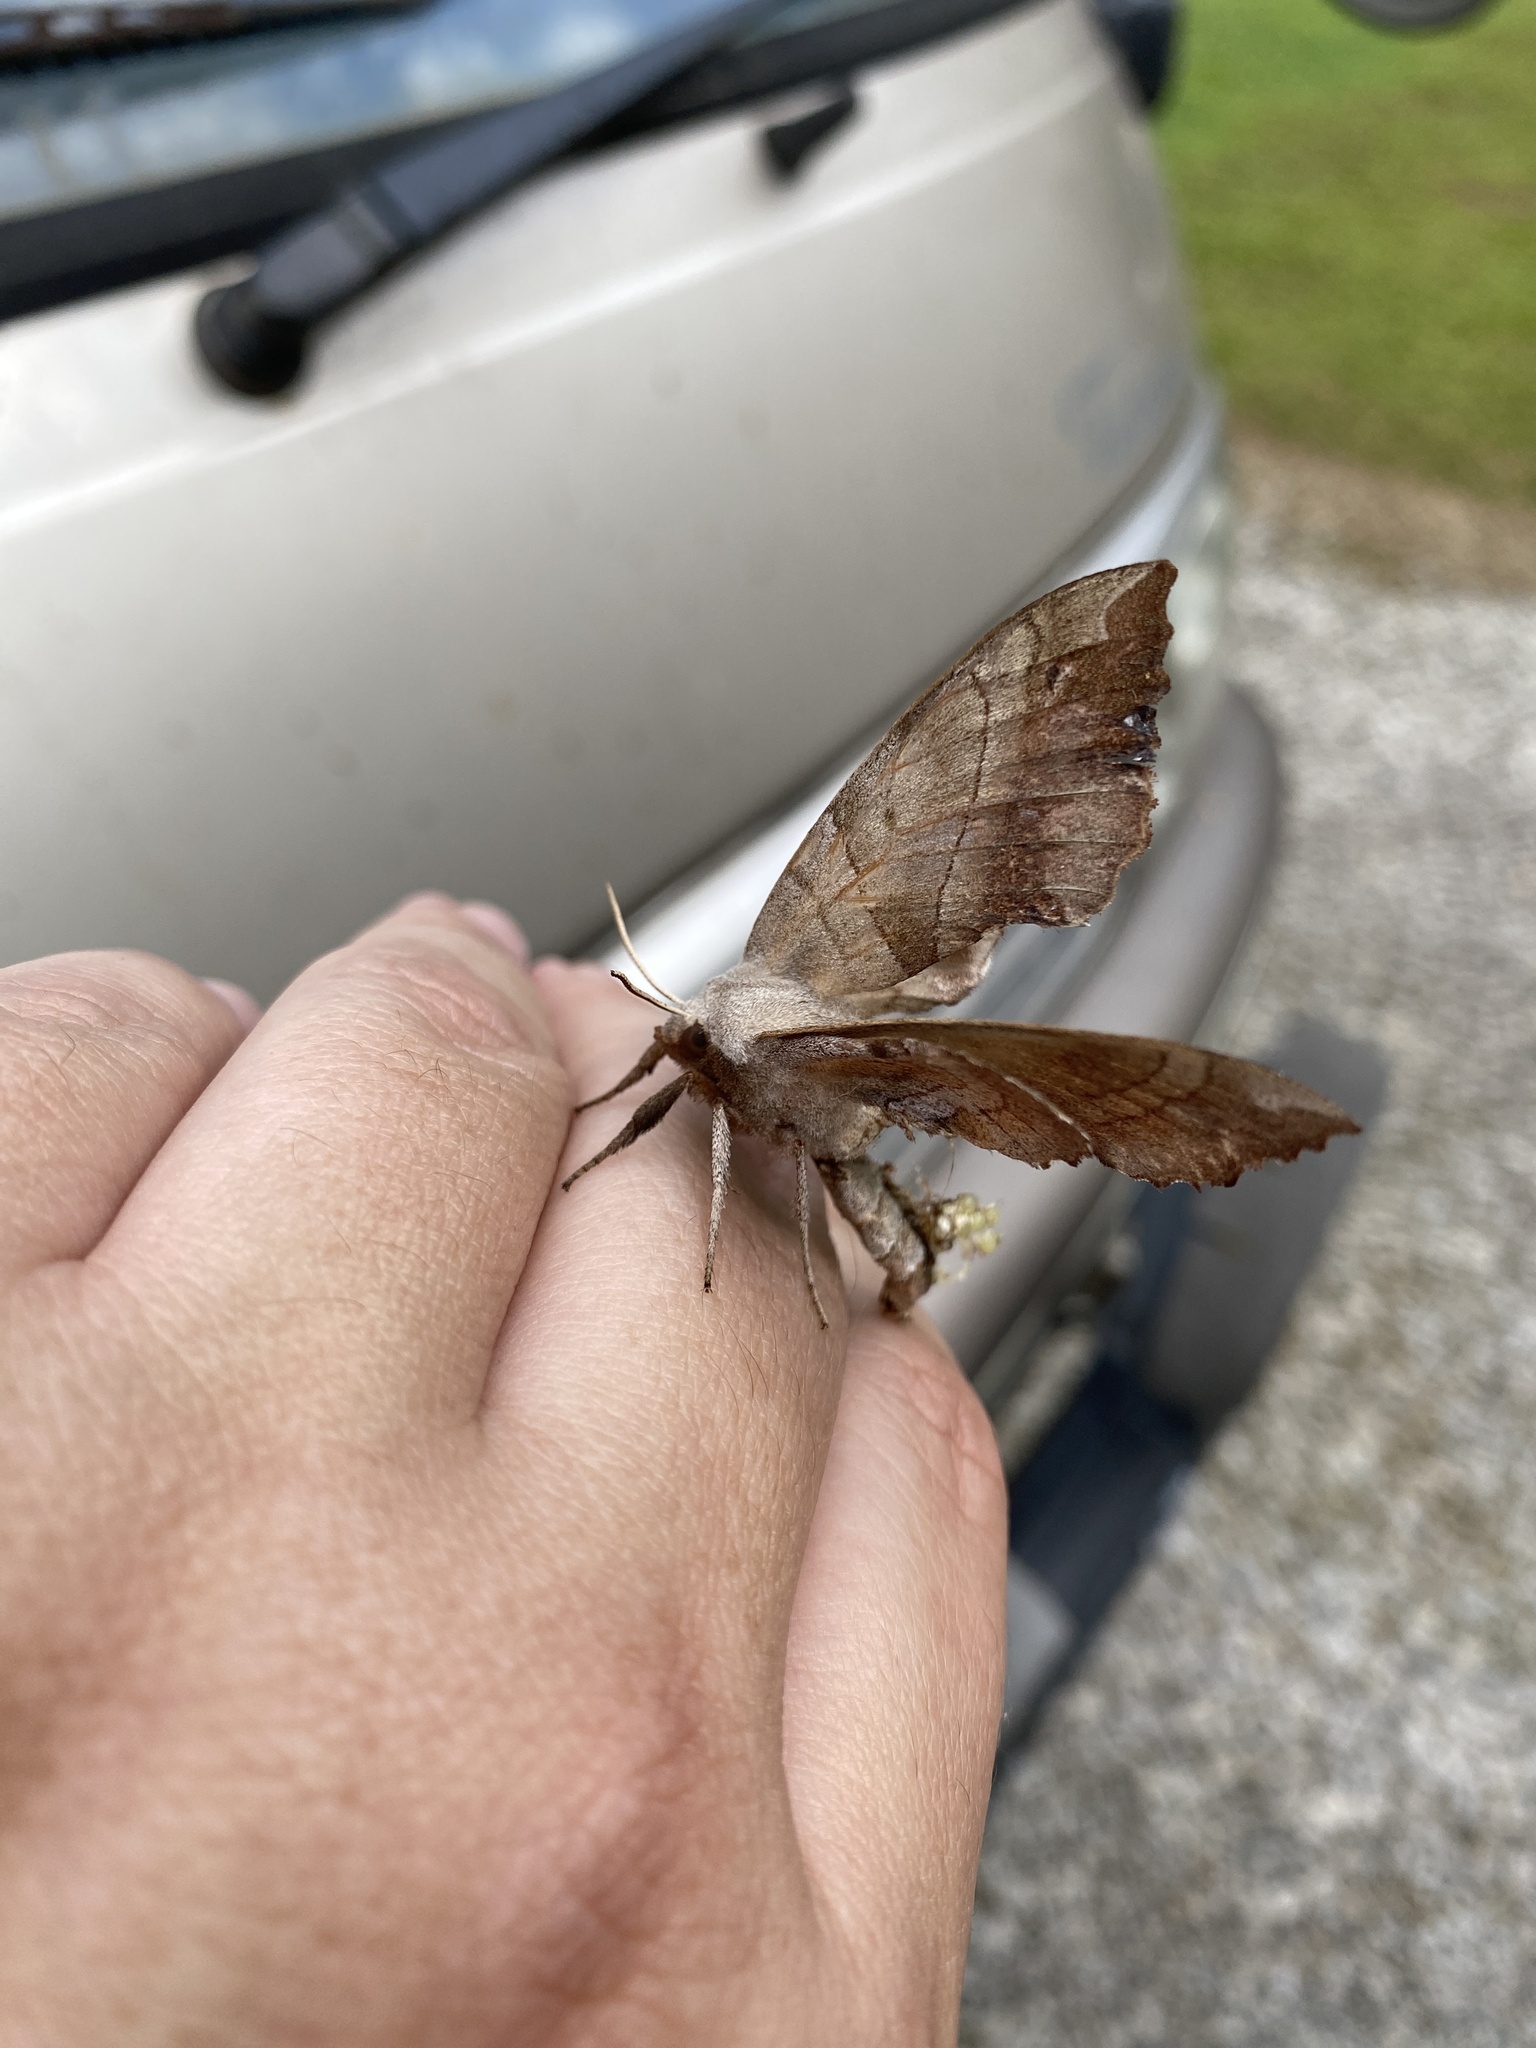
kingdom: Animalia
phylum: Arthropoda
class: Insecta
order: Lepidoptera
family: Sphingidae
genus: Amorpha
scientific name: Amorpha juglandis
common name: Walnut sphinx
